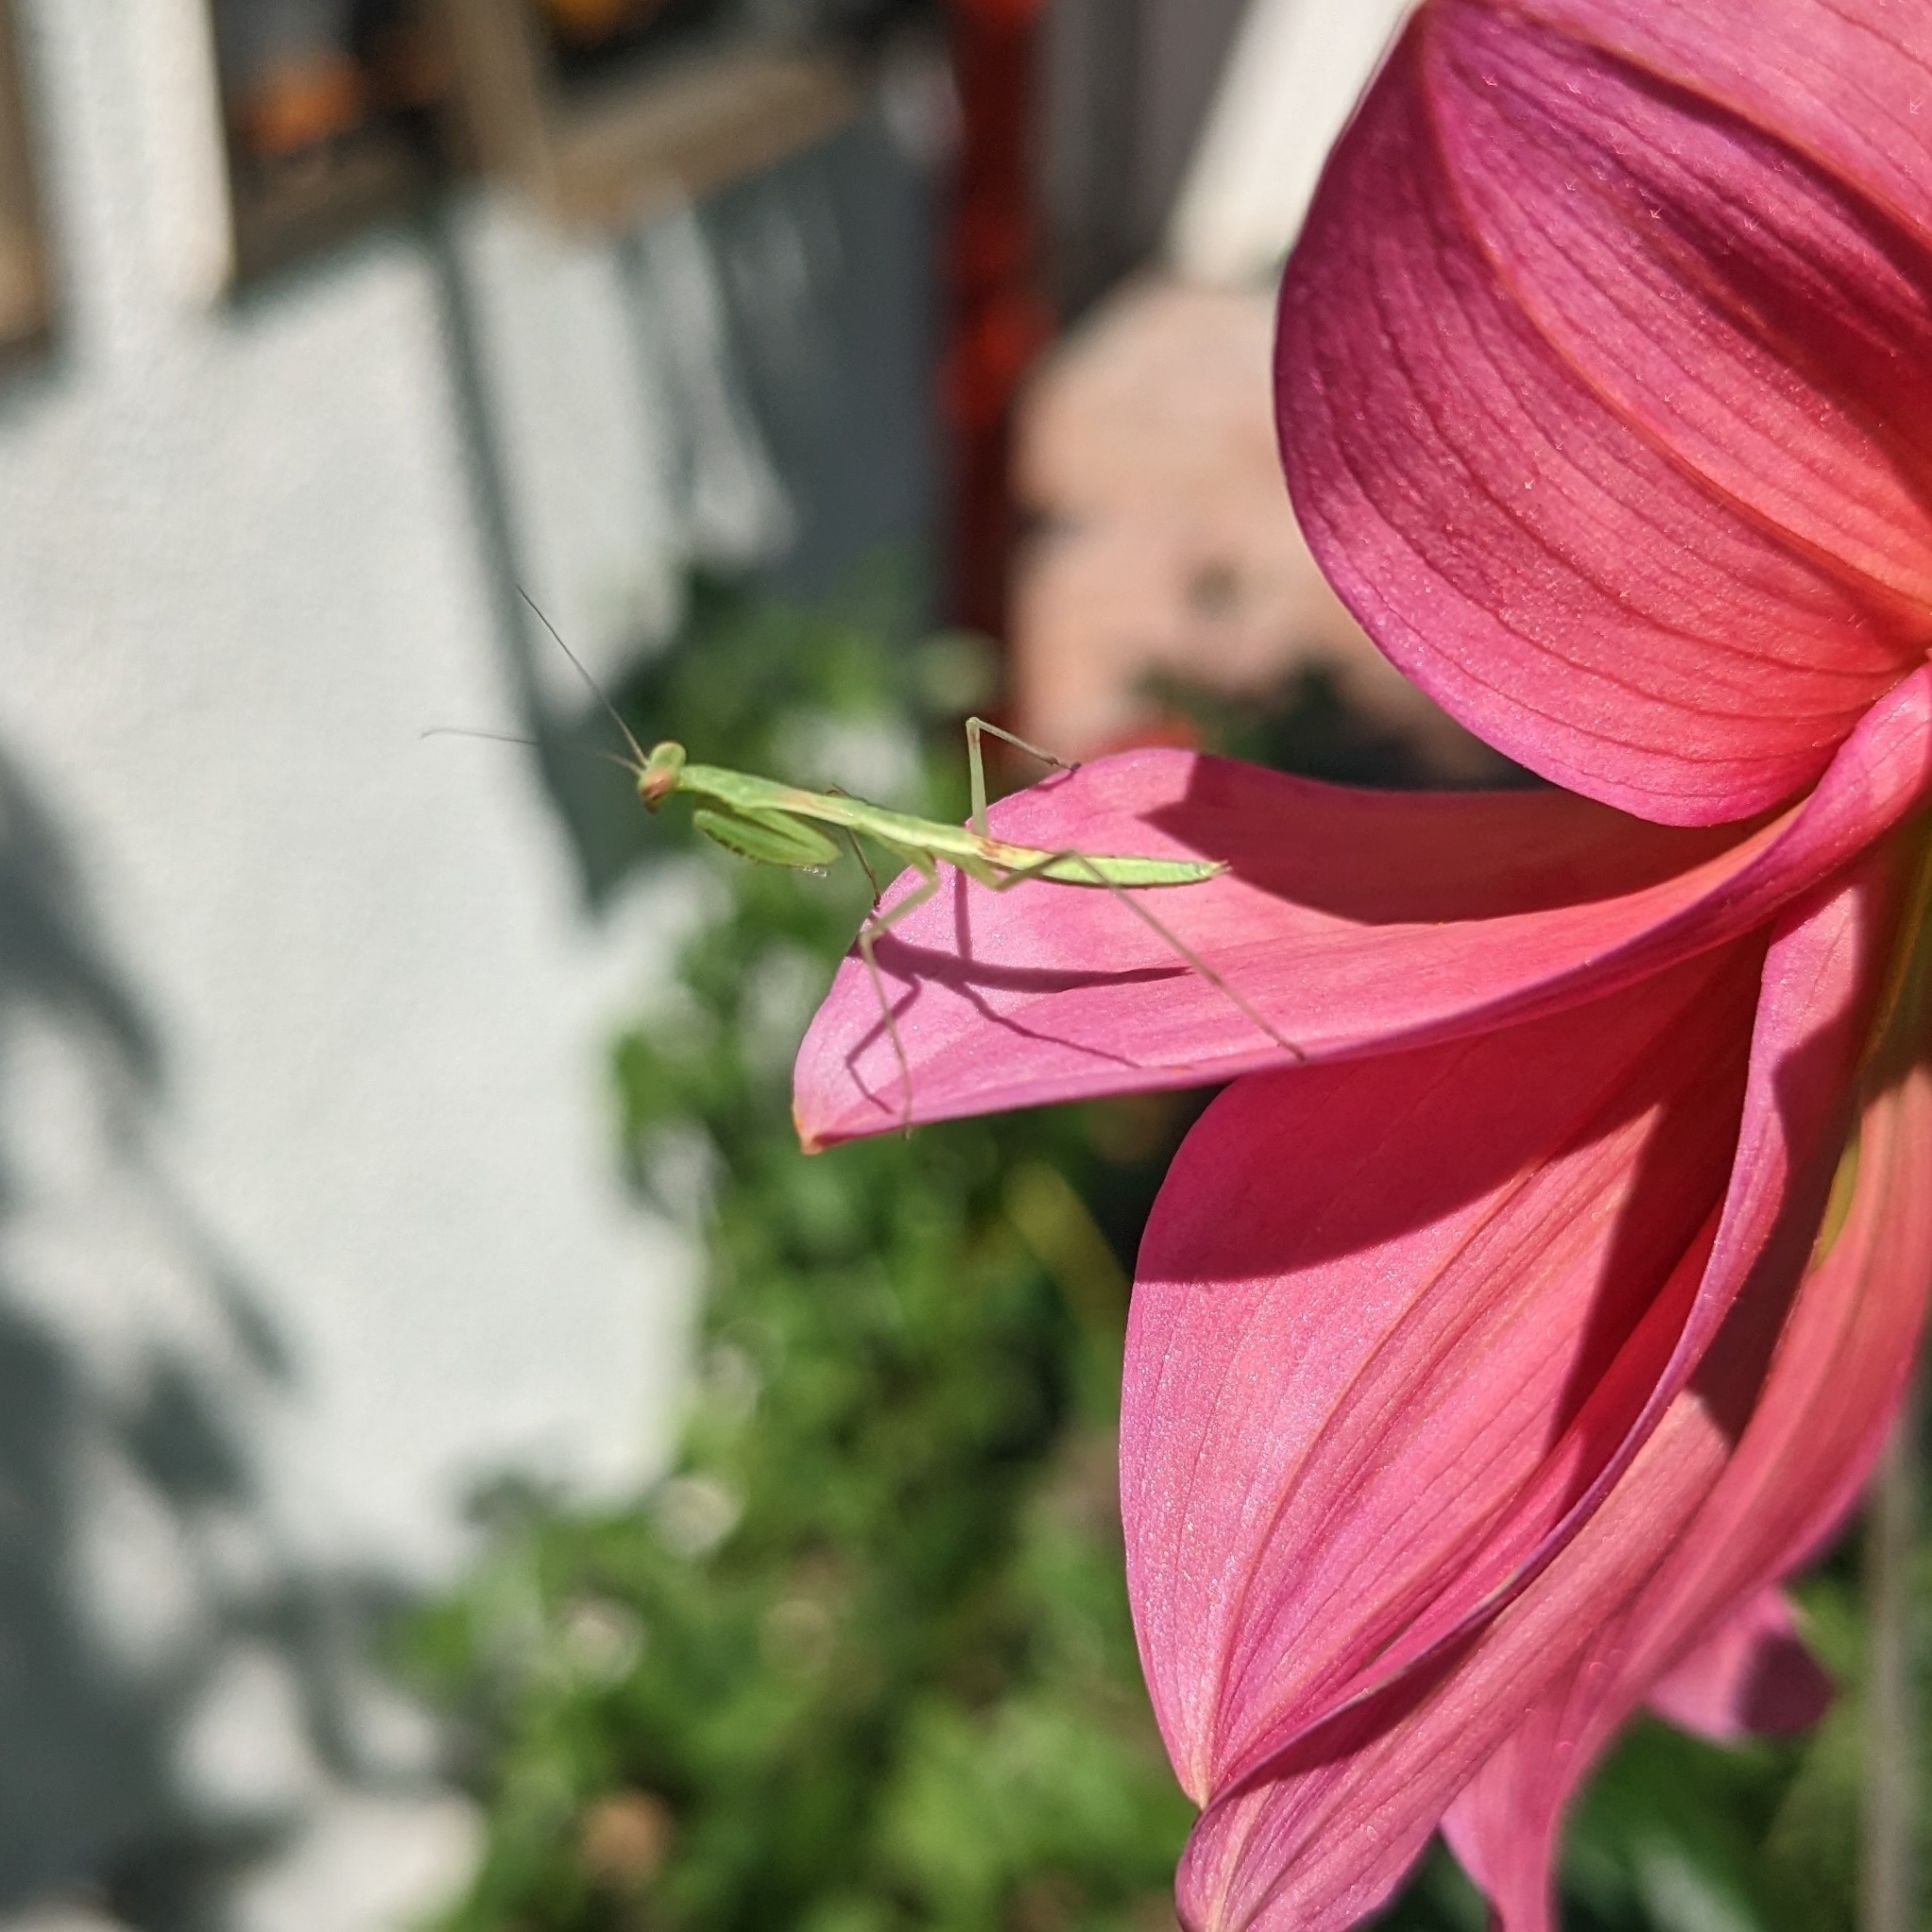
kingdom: Animalia
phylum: Arthropoda
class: Insecta
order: Mantodea
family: Miomantidae
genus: Miomantis
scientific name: Miomantis caffra
